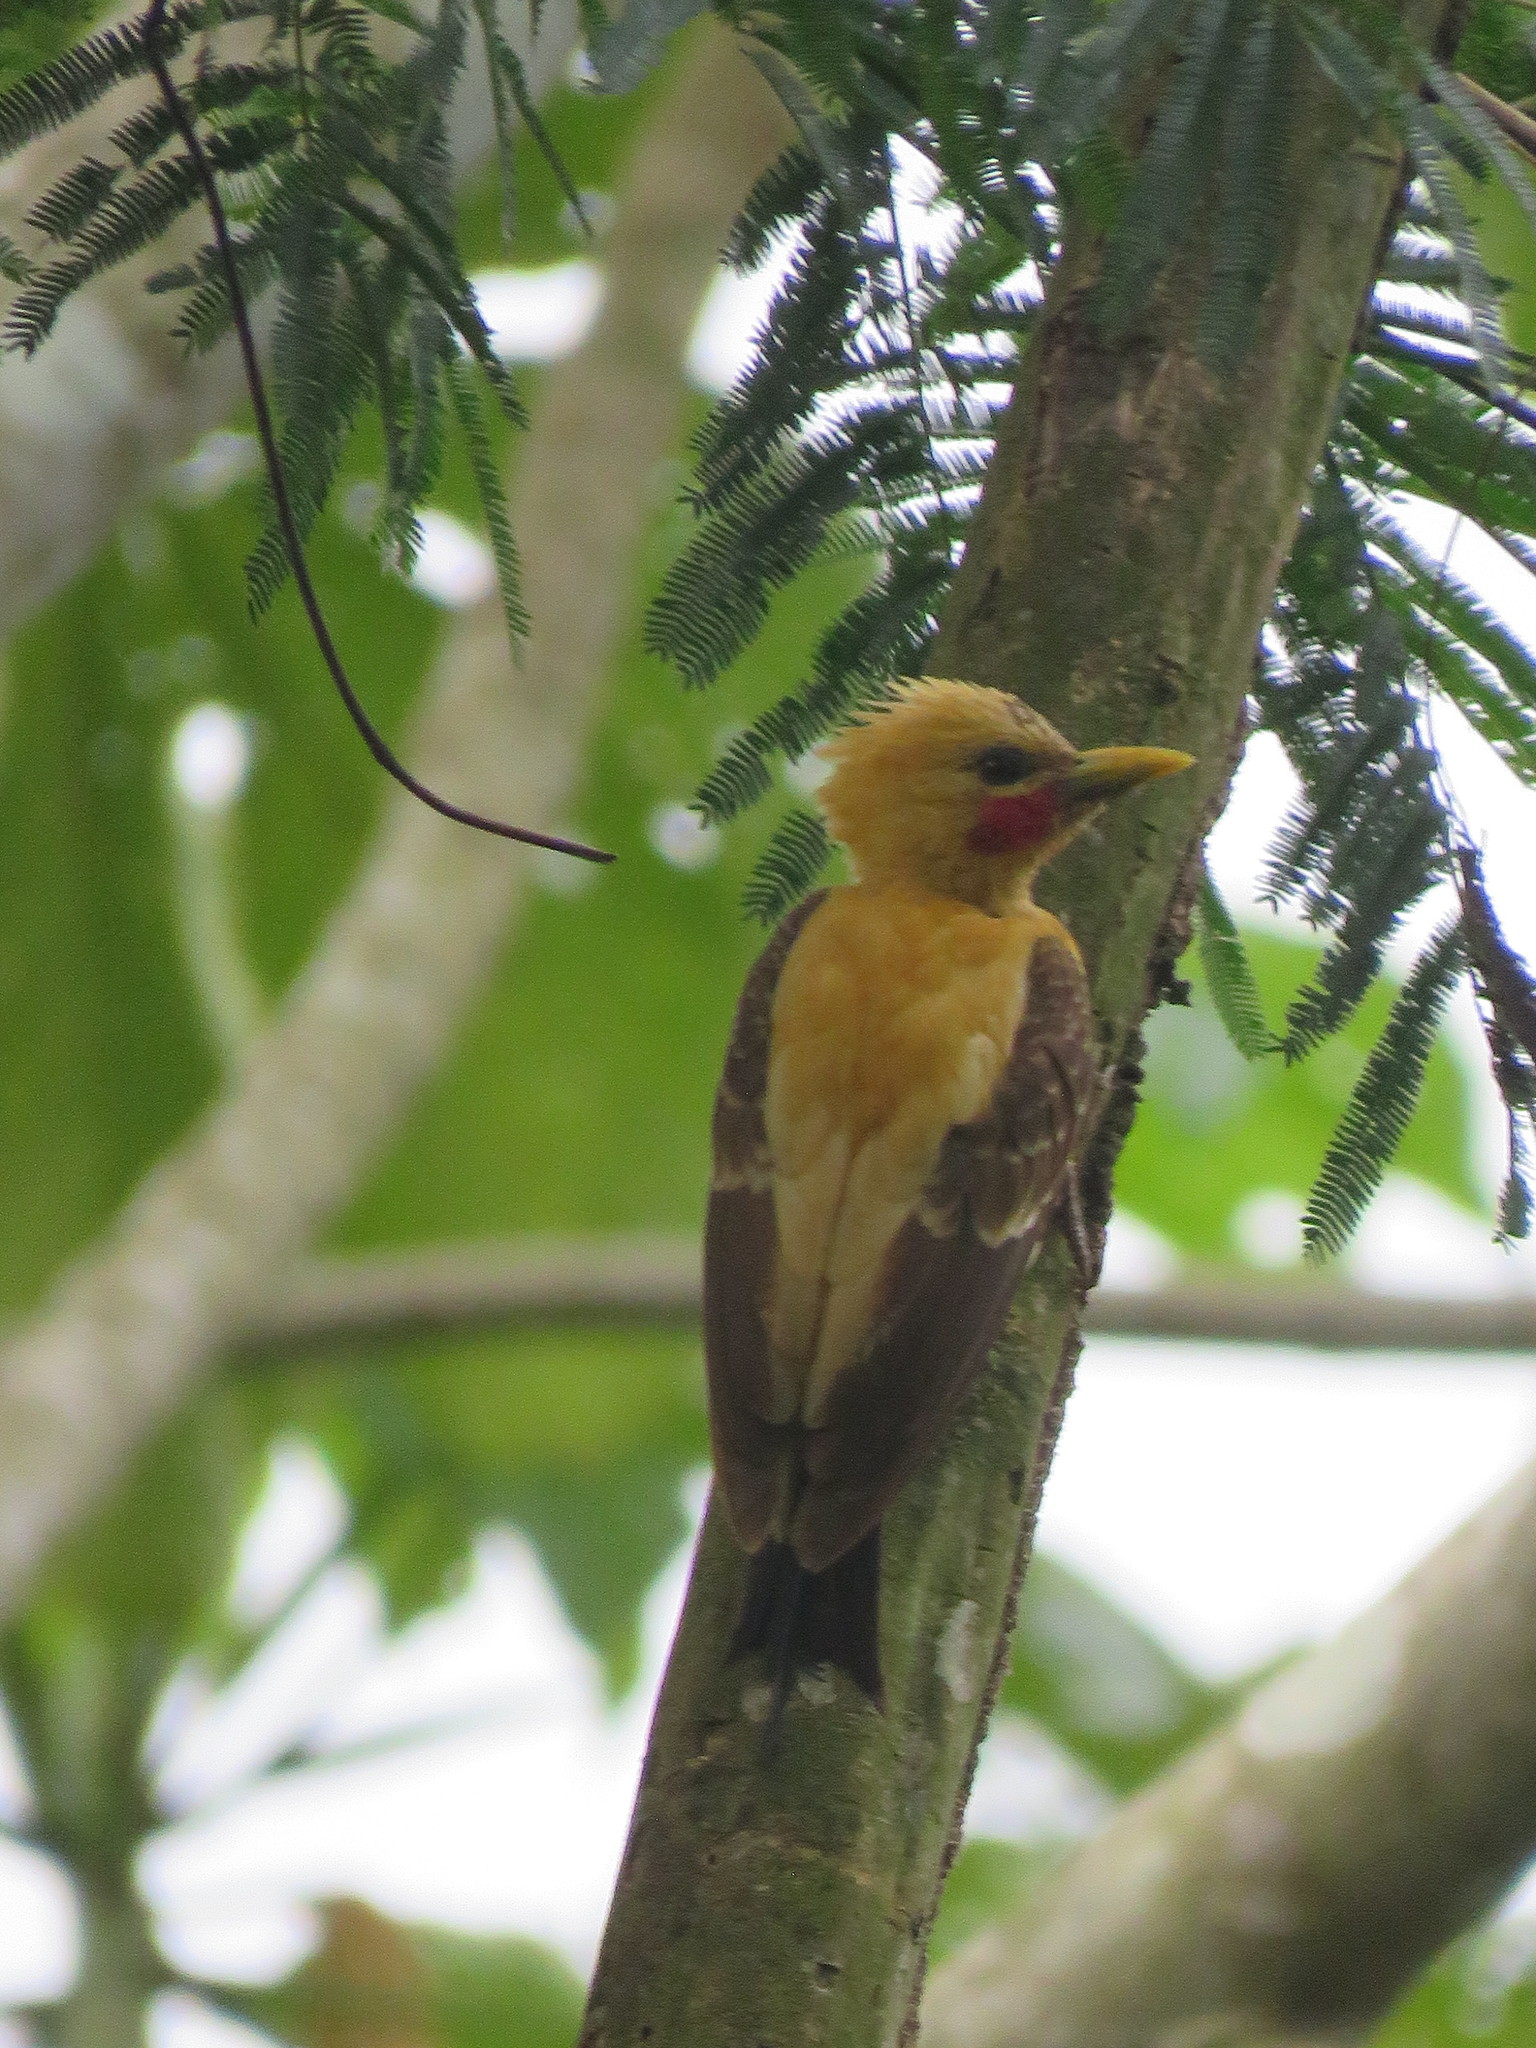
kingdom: Animalia
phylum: Chordata
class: Aves
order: Piciformes
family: Picidae
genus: Celeus
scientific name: Celeus flavus
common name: Cream-colored woodpecker
